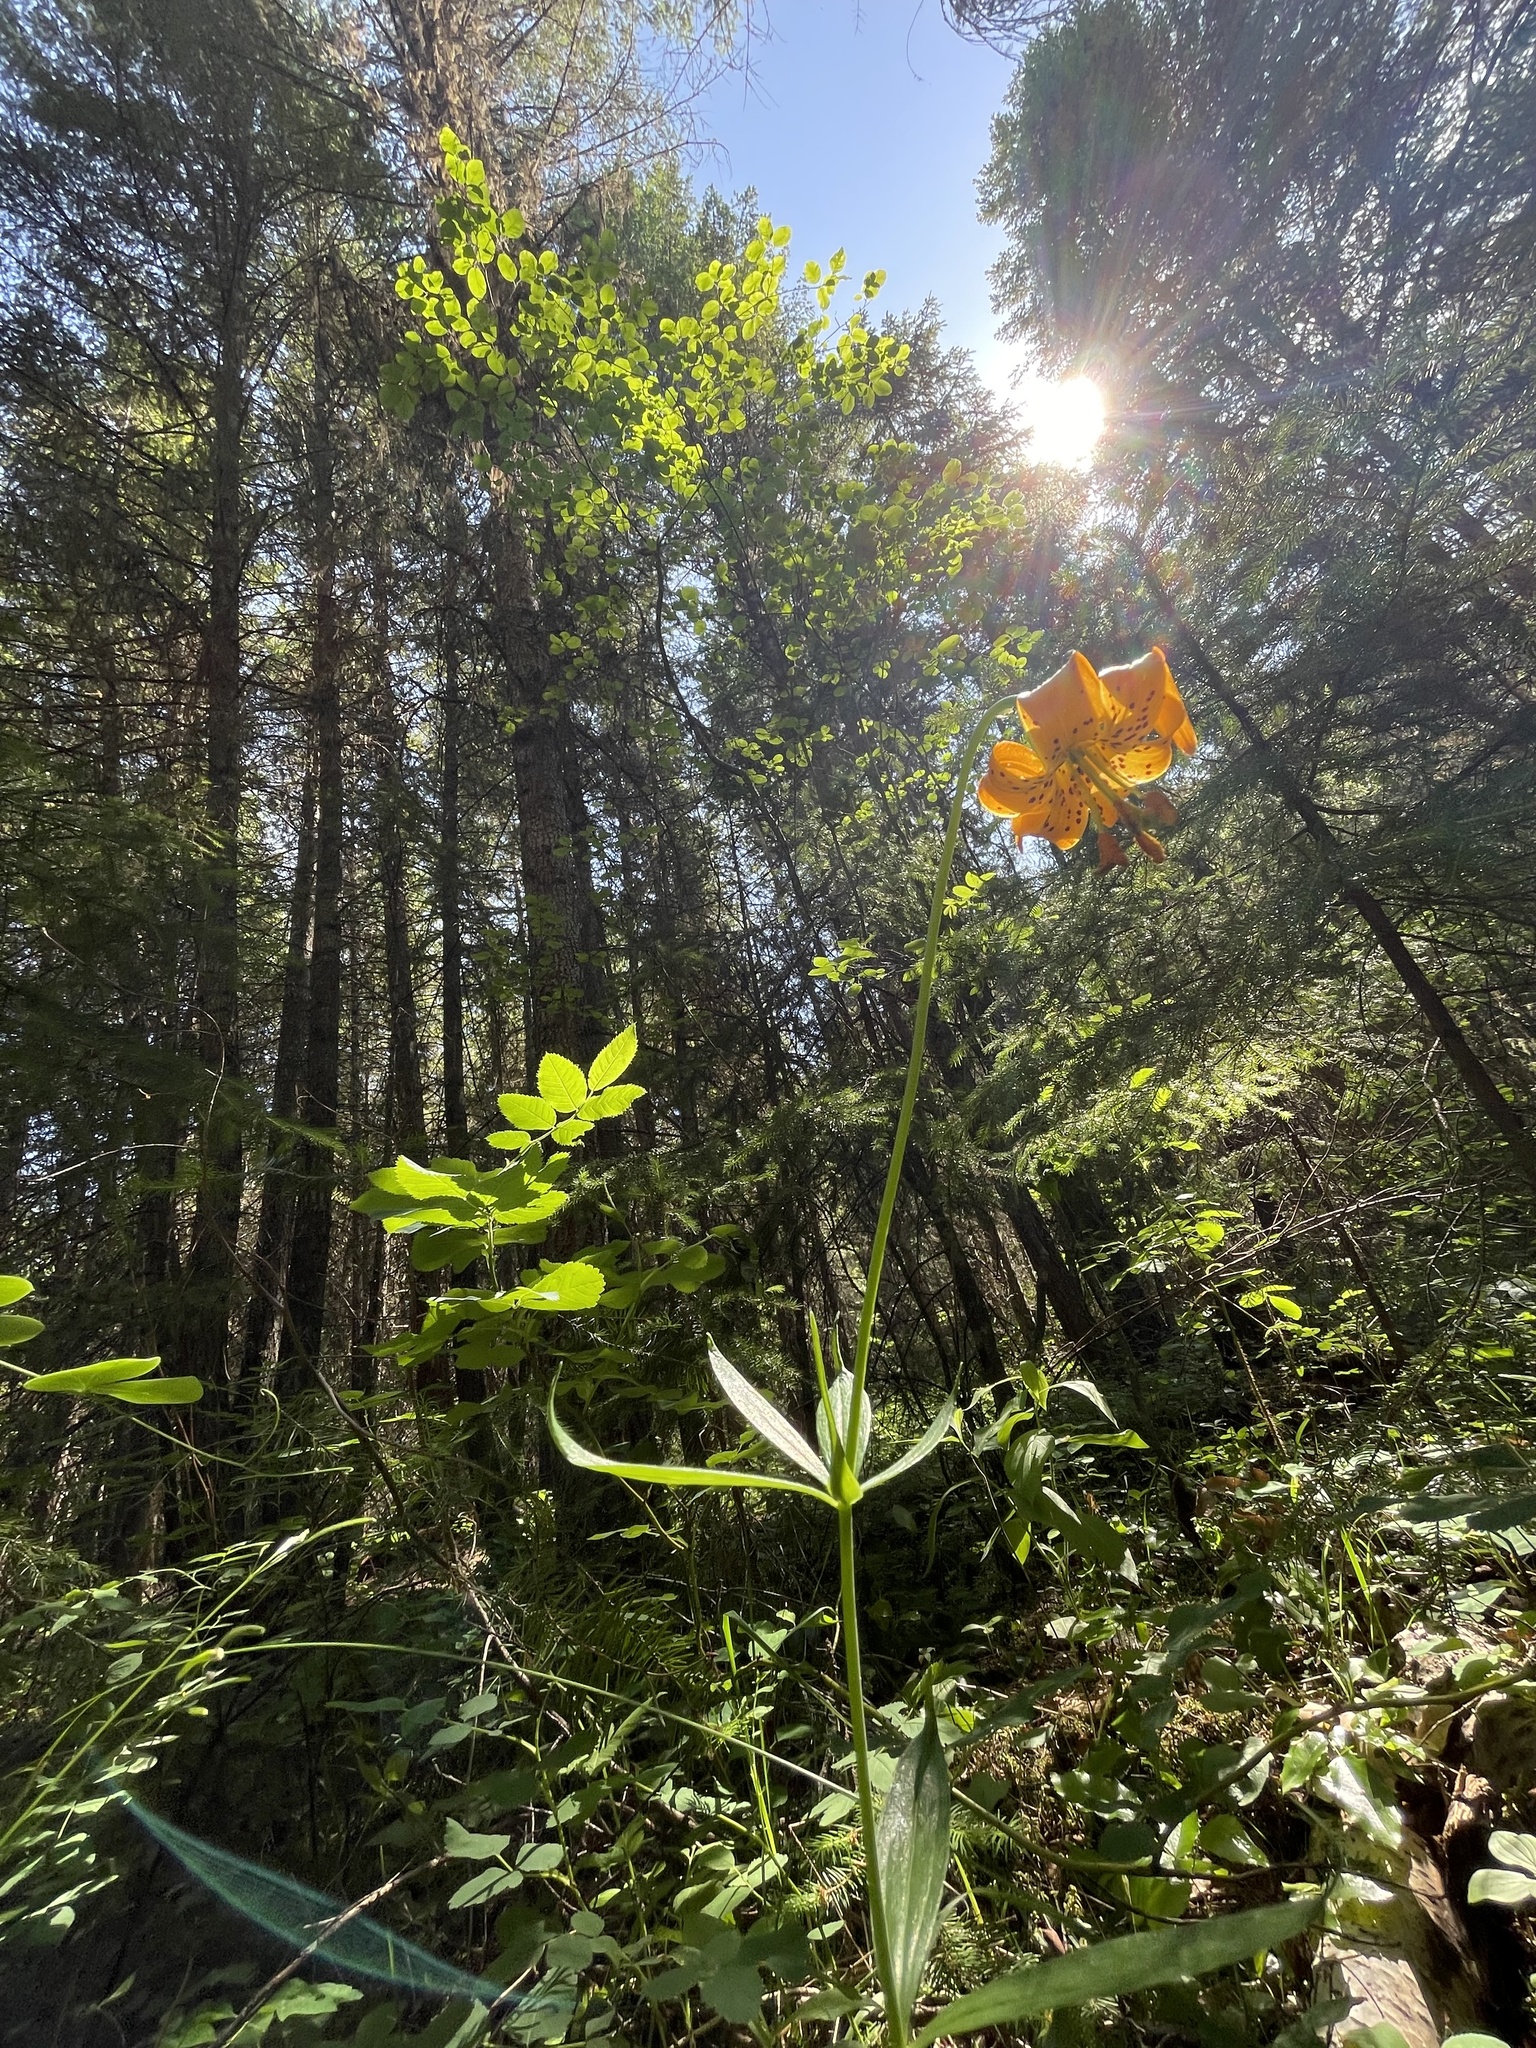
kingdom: Plantae
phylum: Tracheophyta
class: Liliopsida
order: Liliales
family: Liliaceae
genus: Lilium
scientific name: Lilium columbianum
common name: Columbia lily
